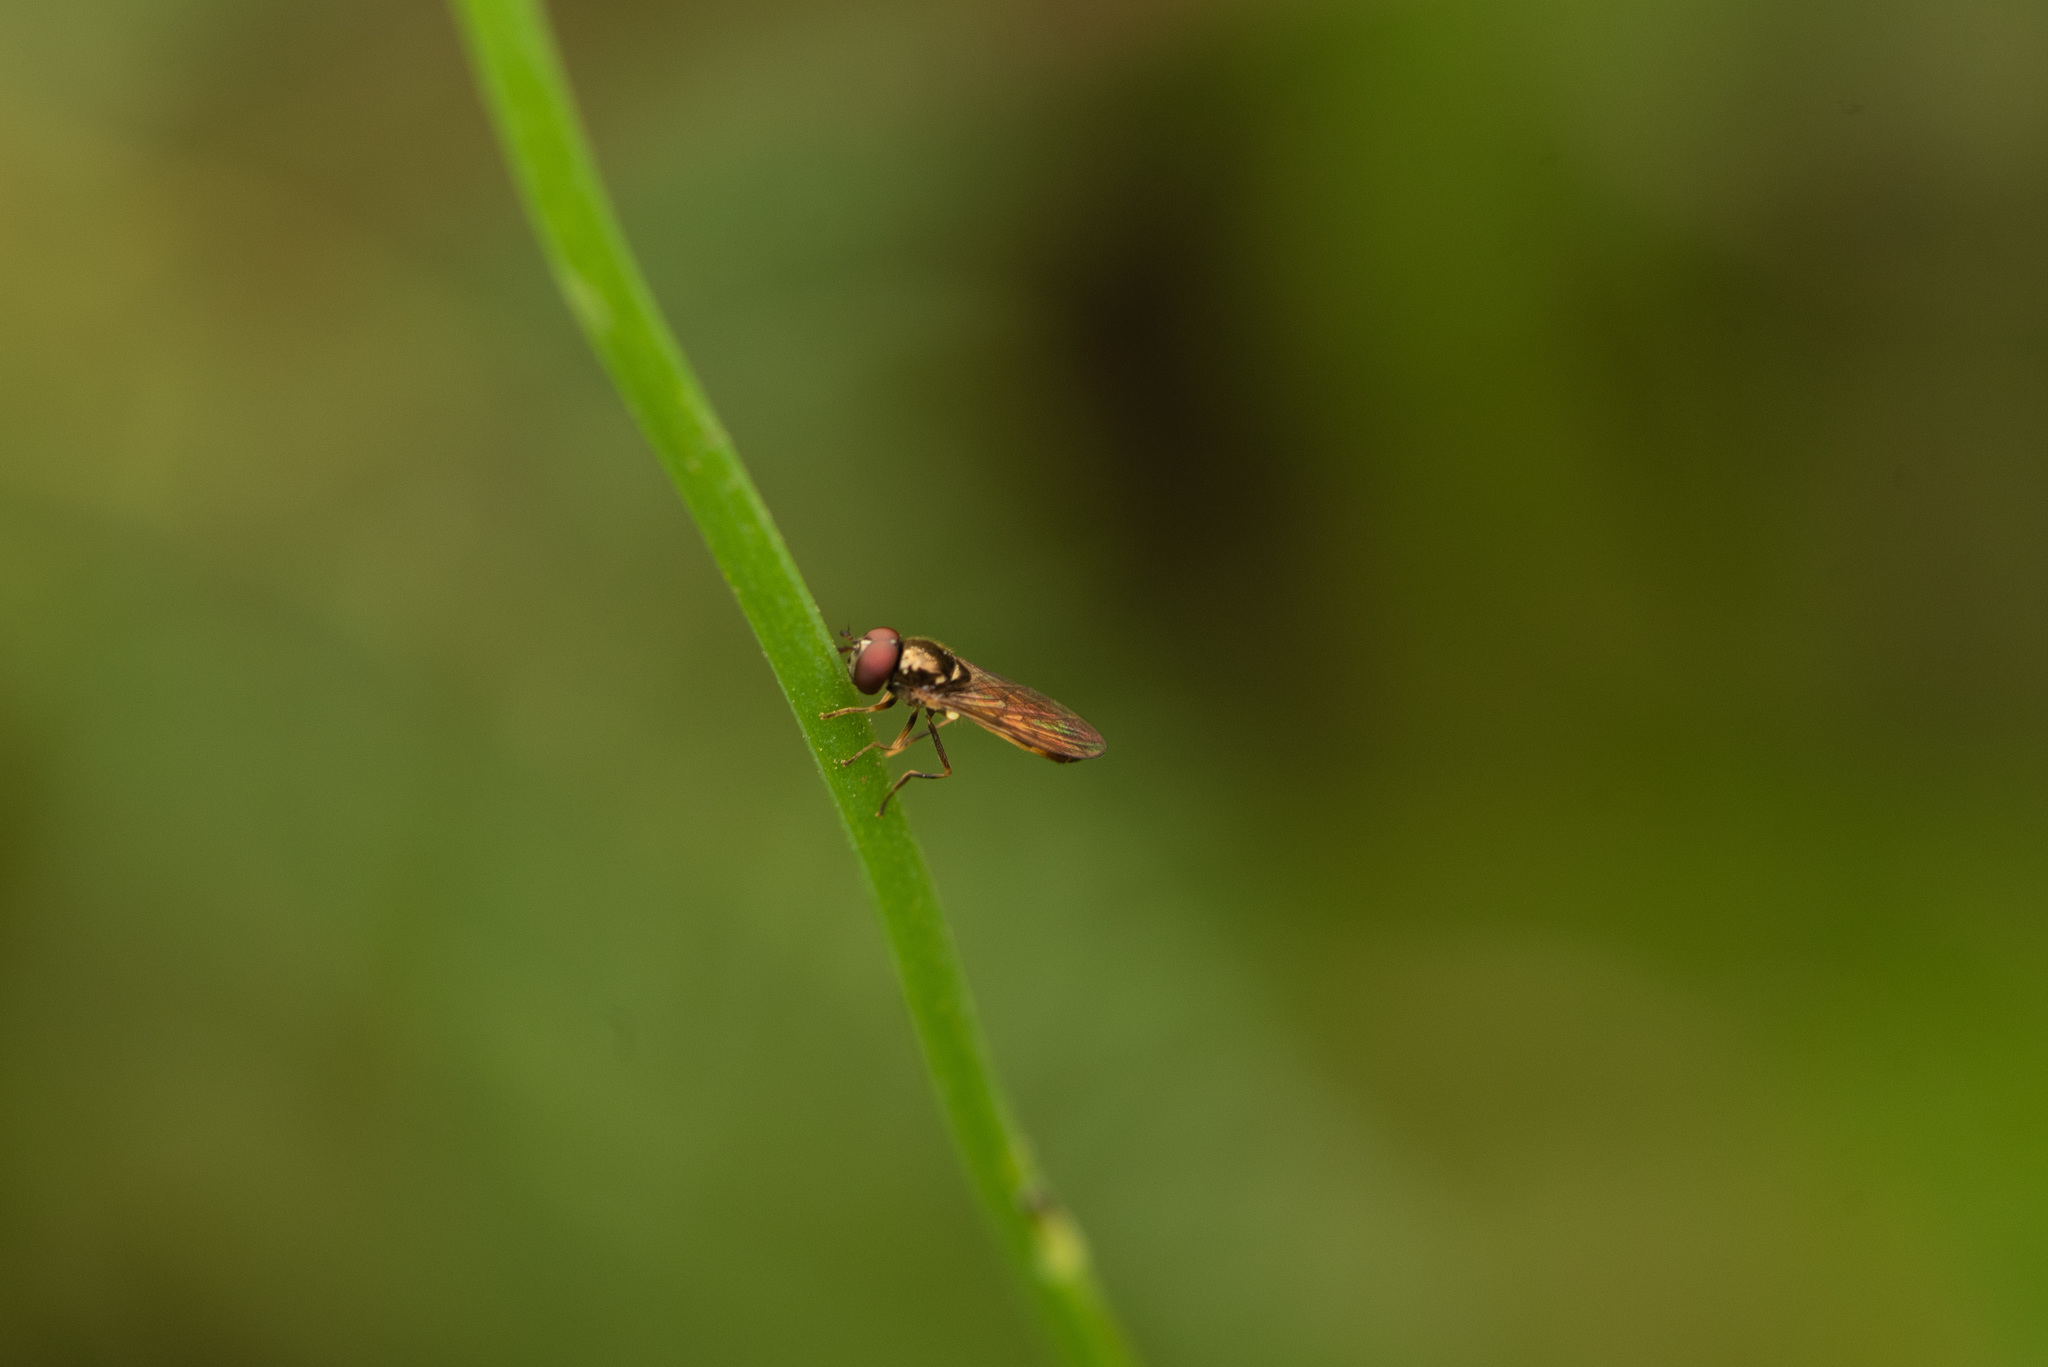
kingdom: Animalia
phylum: Arthropoda
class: Insecta
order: Diptera
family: Syrphidae
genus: Melanostoma
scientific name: Melanostoma fasciatum
